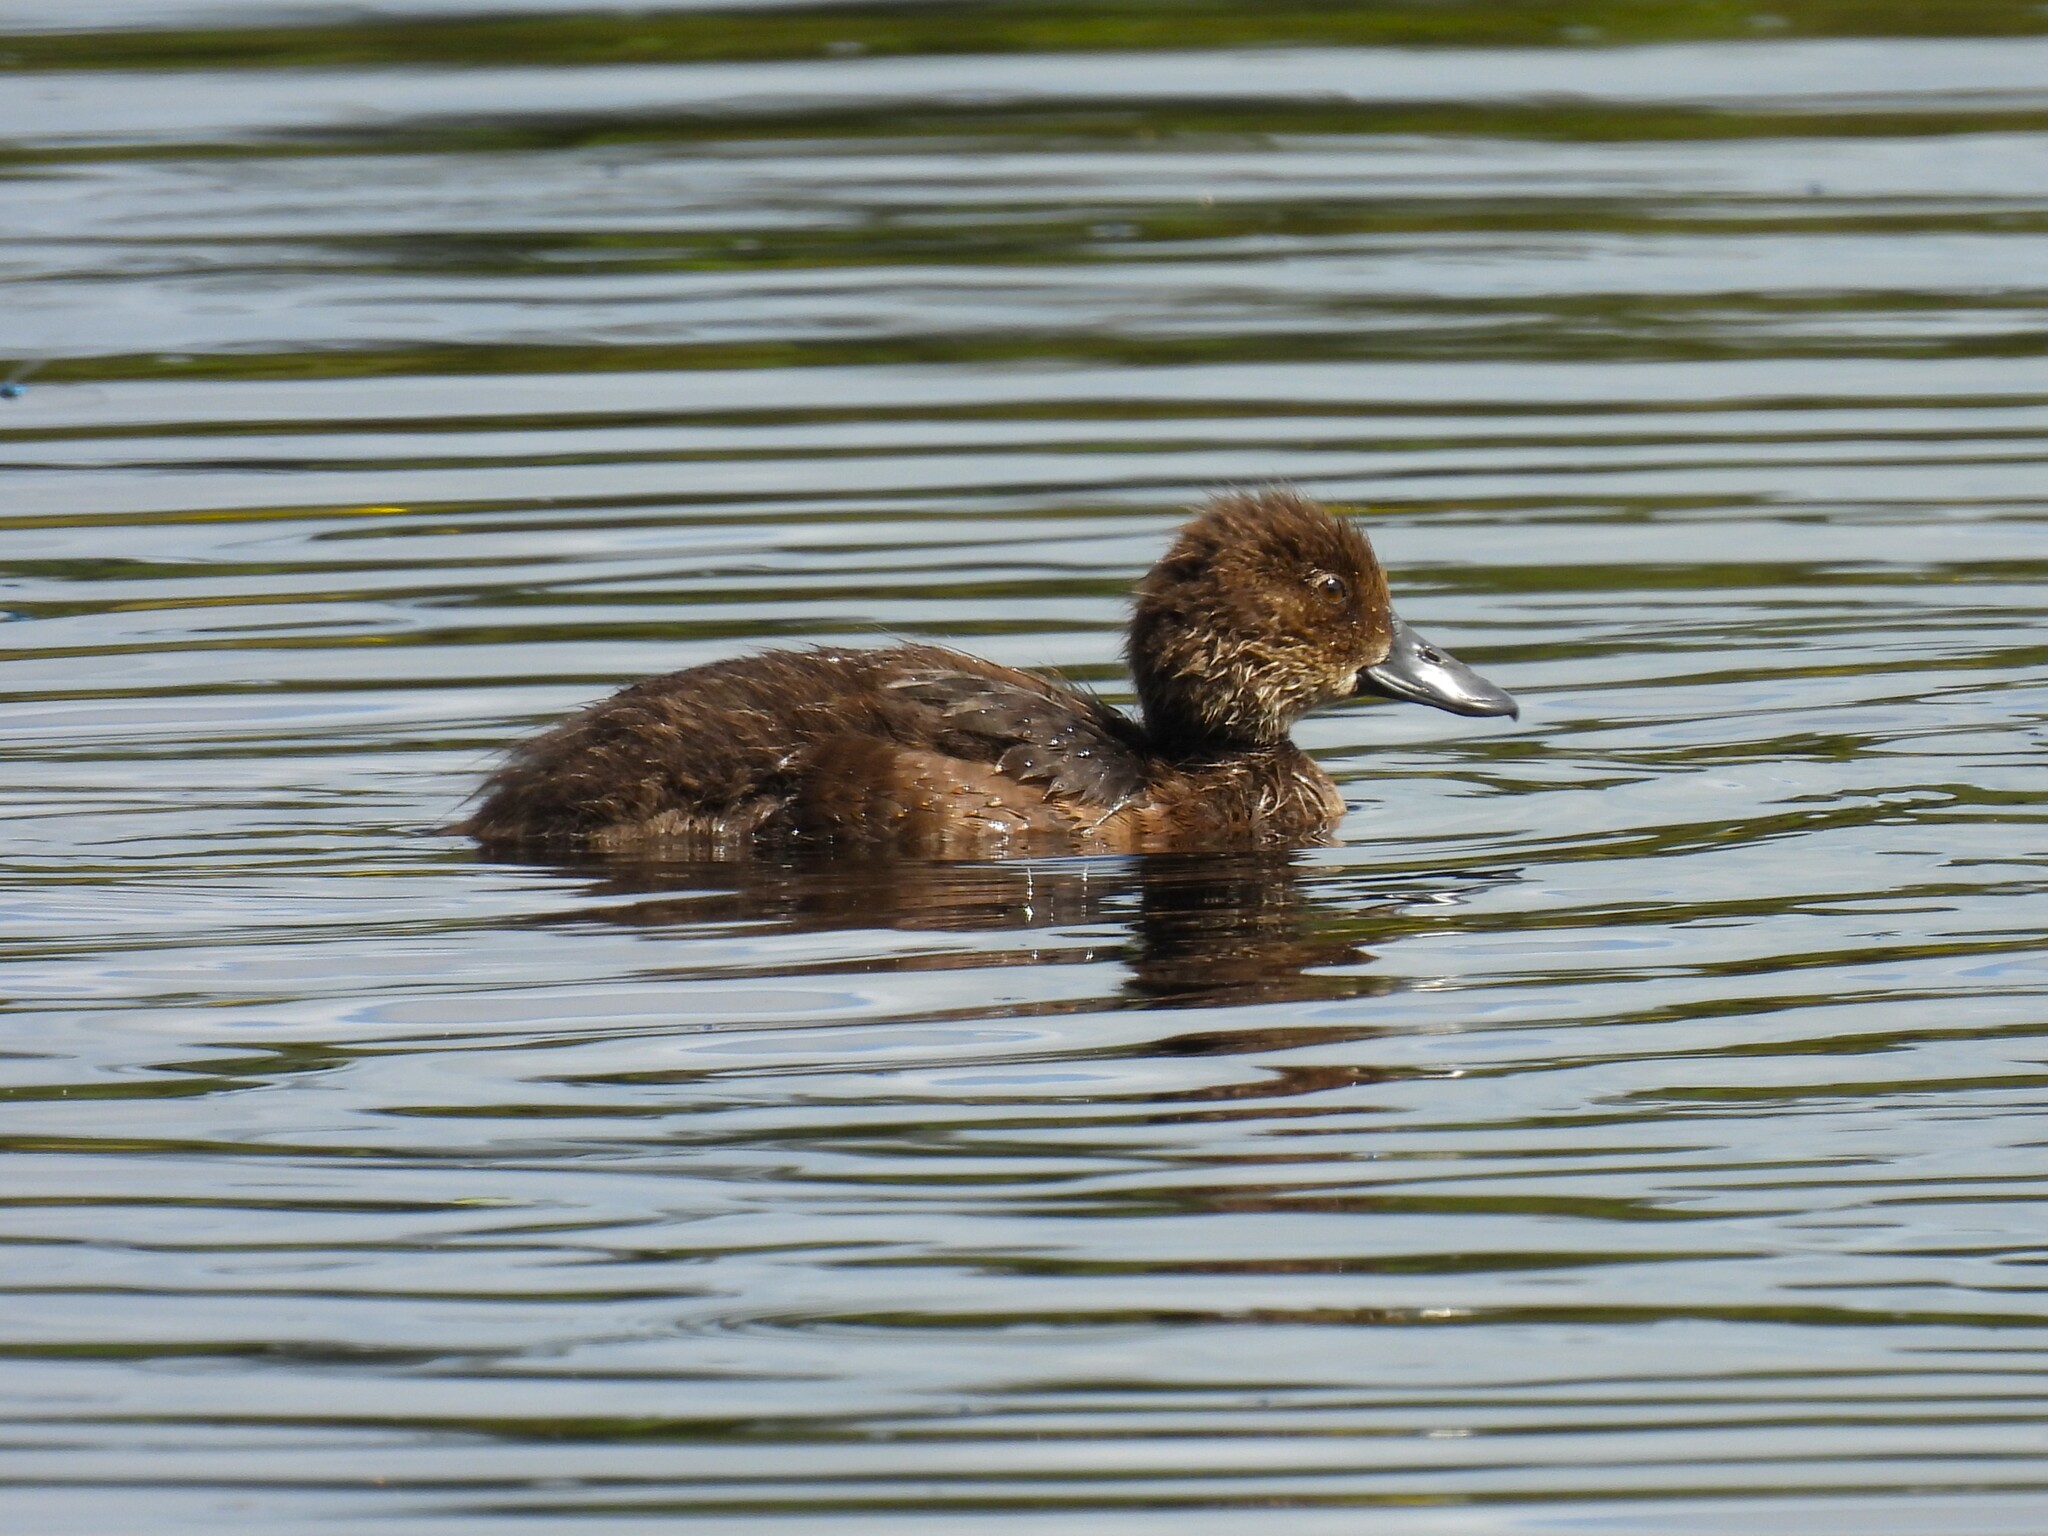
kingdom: Animalia
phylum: Chordata
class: Aves
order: Anseriformes
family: Anatidae
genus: Aythya
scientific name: Aythya fuligula
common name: Tufted duck
